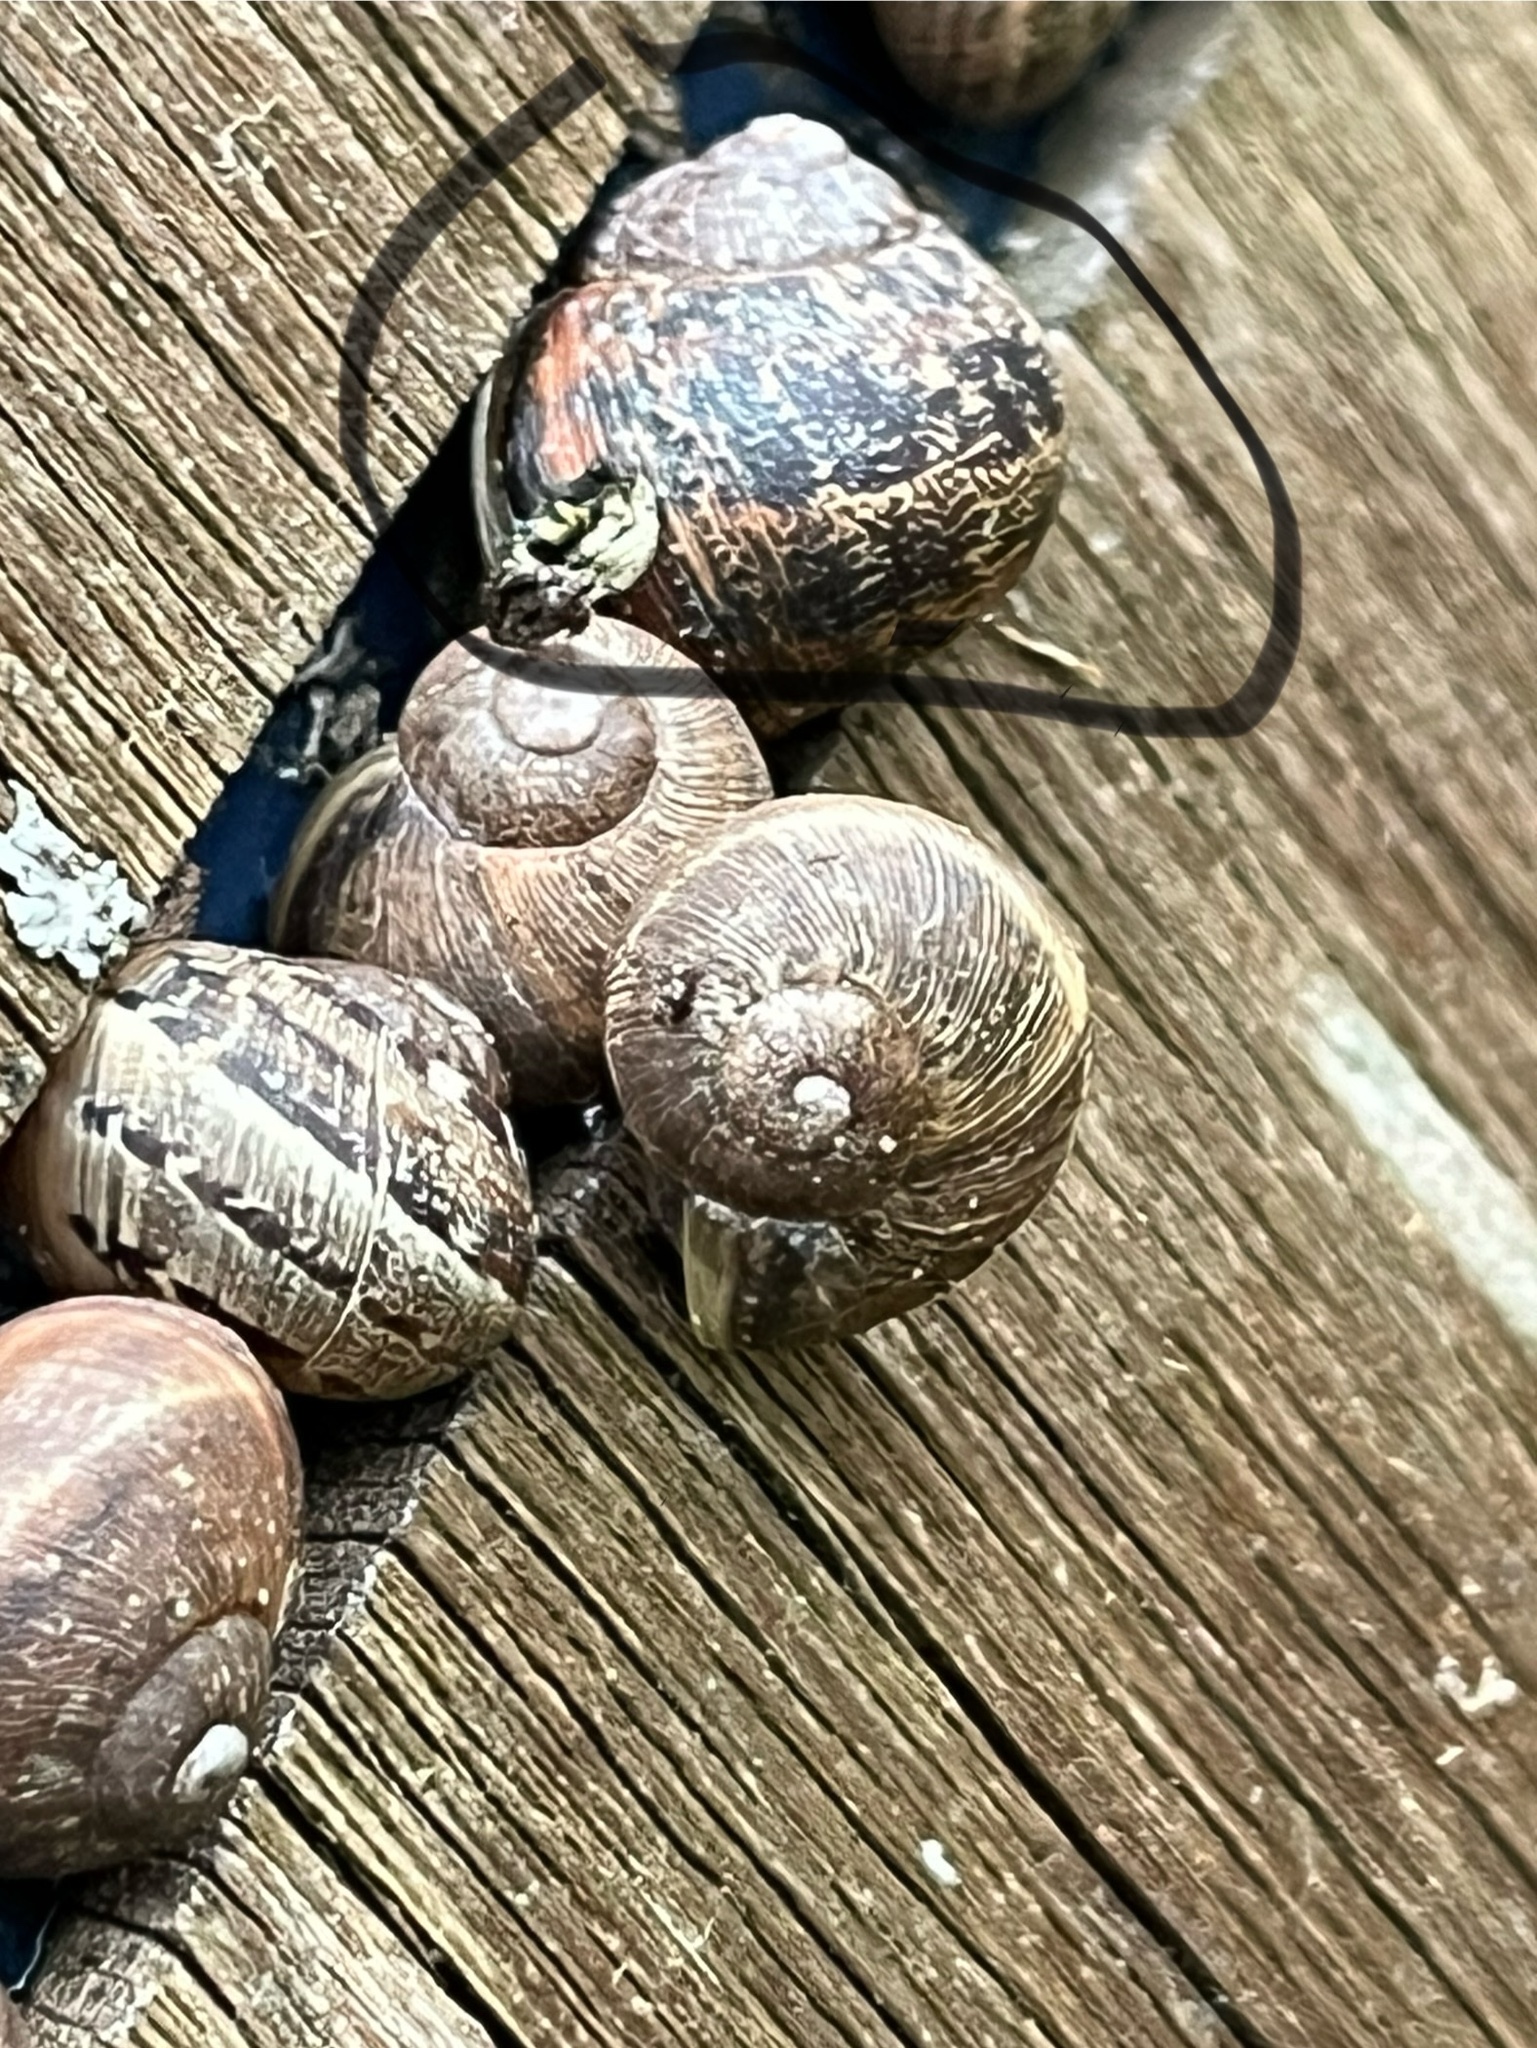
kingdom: Animalia
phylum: Mollusca
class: Gastropoda
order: Stylommatophora
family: Helicidae
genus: Cornu
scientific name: Cornu aspersum
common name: Brown garden snail
